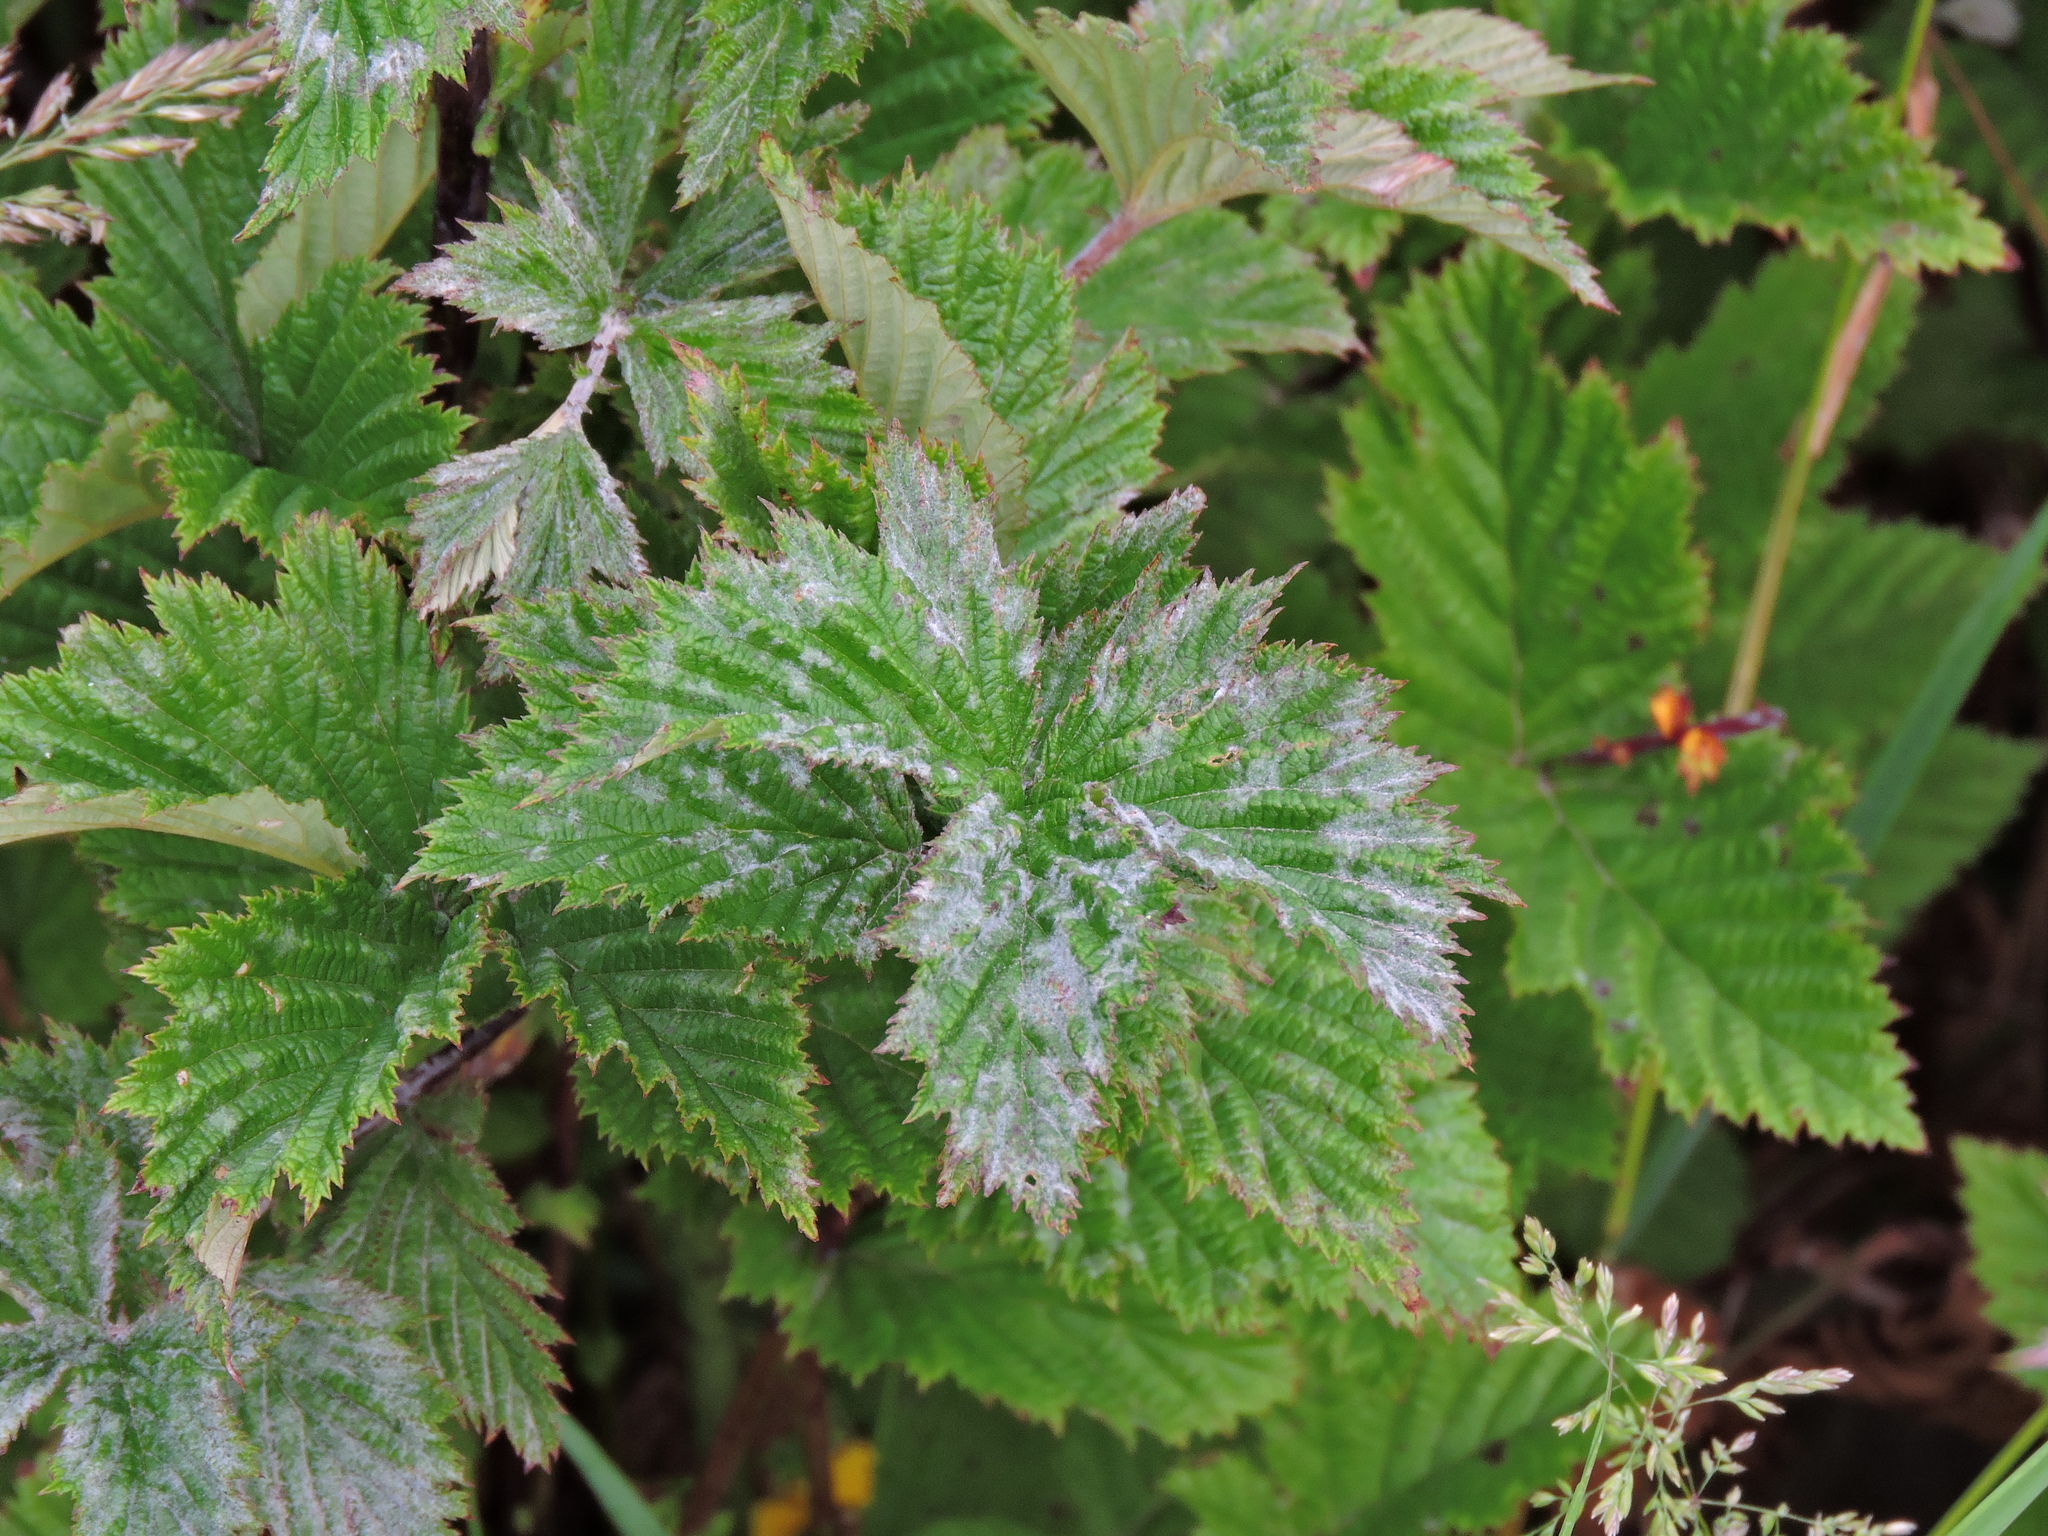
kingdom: Fungi
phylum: Ascomycota
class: Leotiomycetes
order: Helotiales
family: Erysiphaceae
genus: Podosphaera
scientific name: Podosphaera filipendulae
